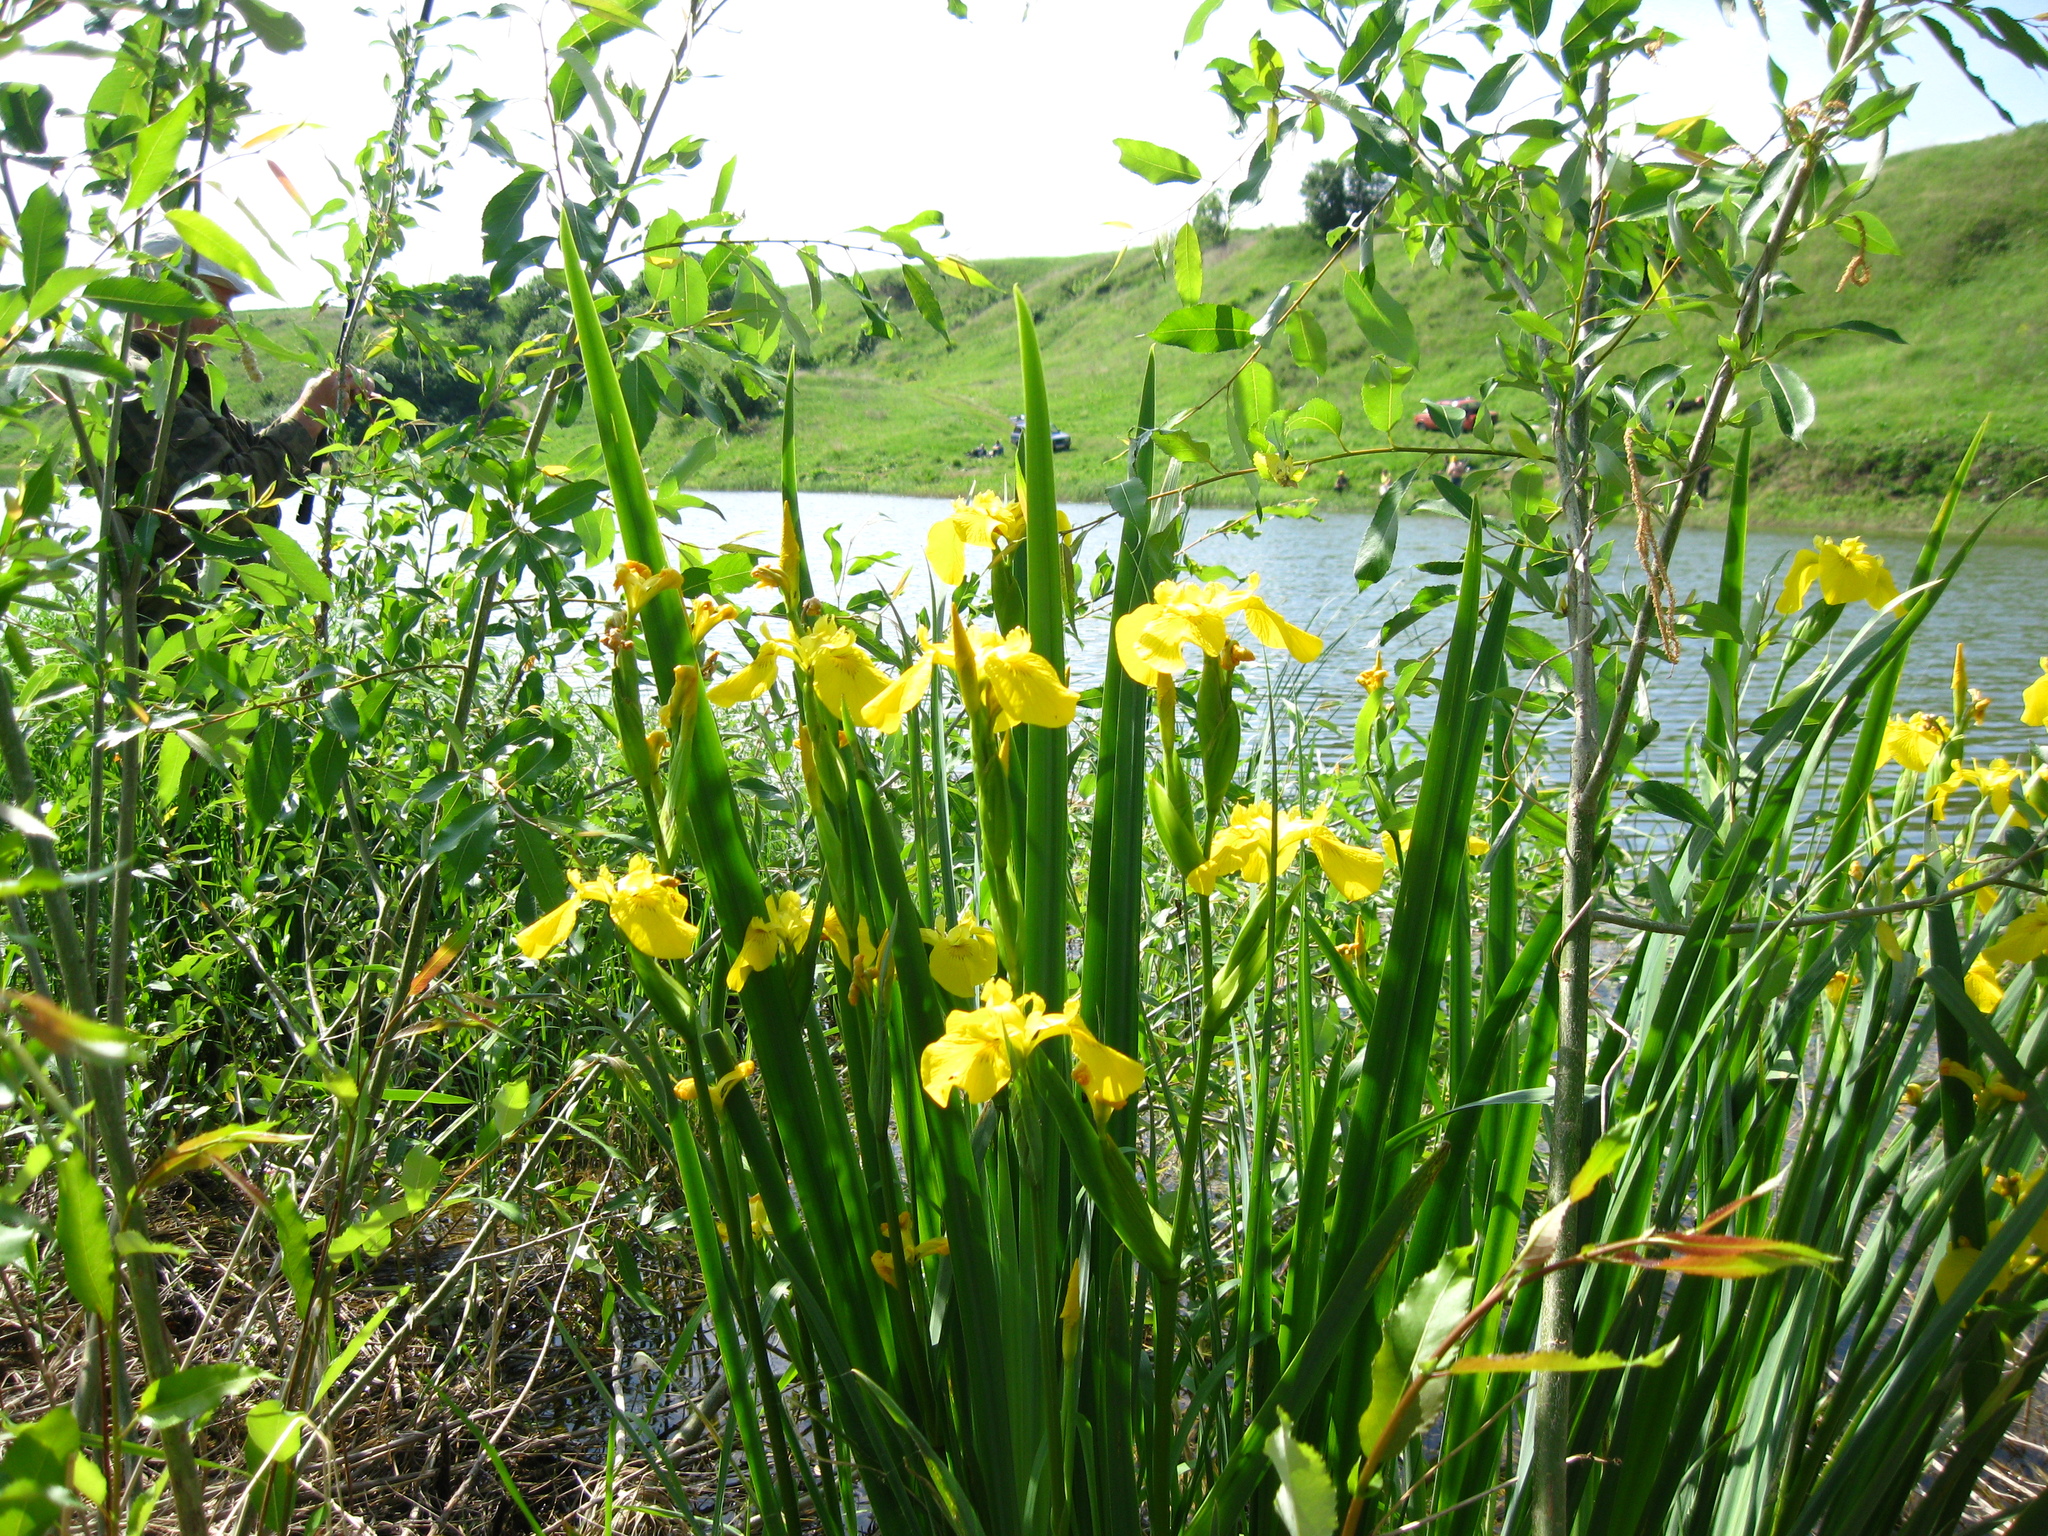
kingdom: Plantae
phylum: Tracheophyta
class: Liliopsida
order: Asparagales
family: Iridaceae
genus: Iris
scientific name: Iris pseudacorus
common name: Yellow flag
